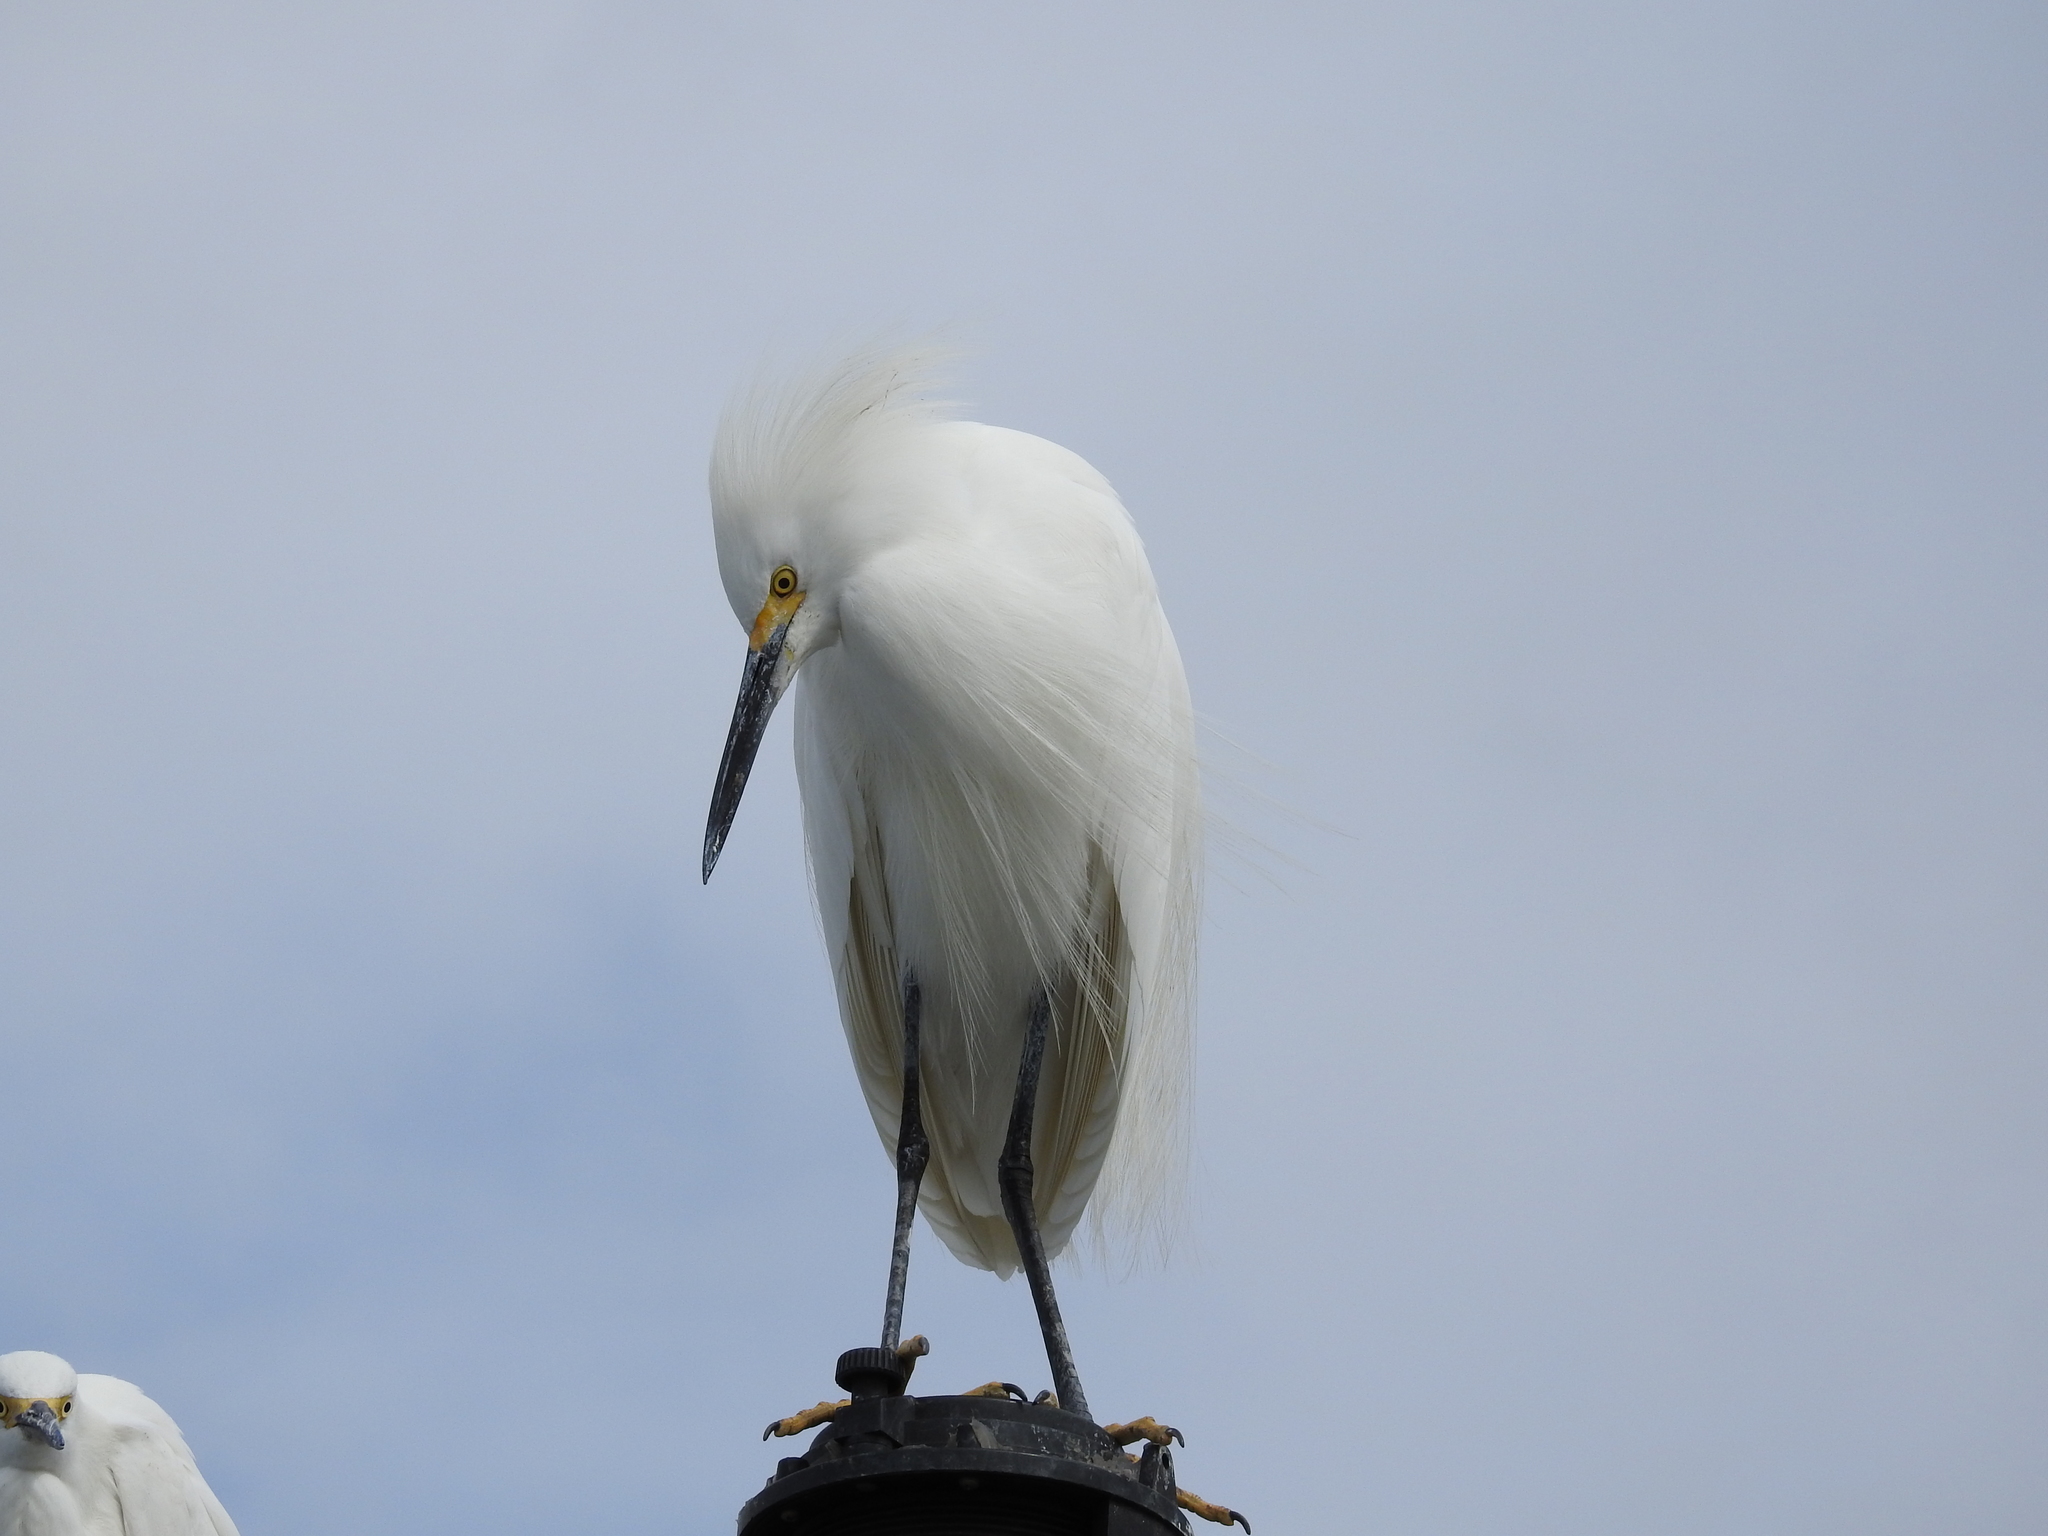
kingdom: Animalia
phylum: Chordata
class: Aves
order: Pelecaniformes
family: Ardeidae
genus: Egretta
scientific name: Egretta thula
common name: Snowy egret
